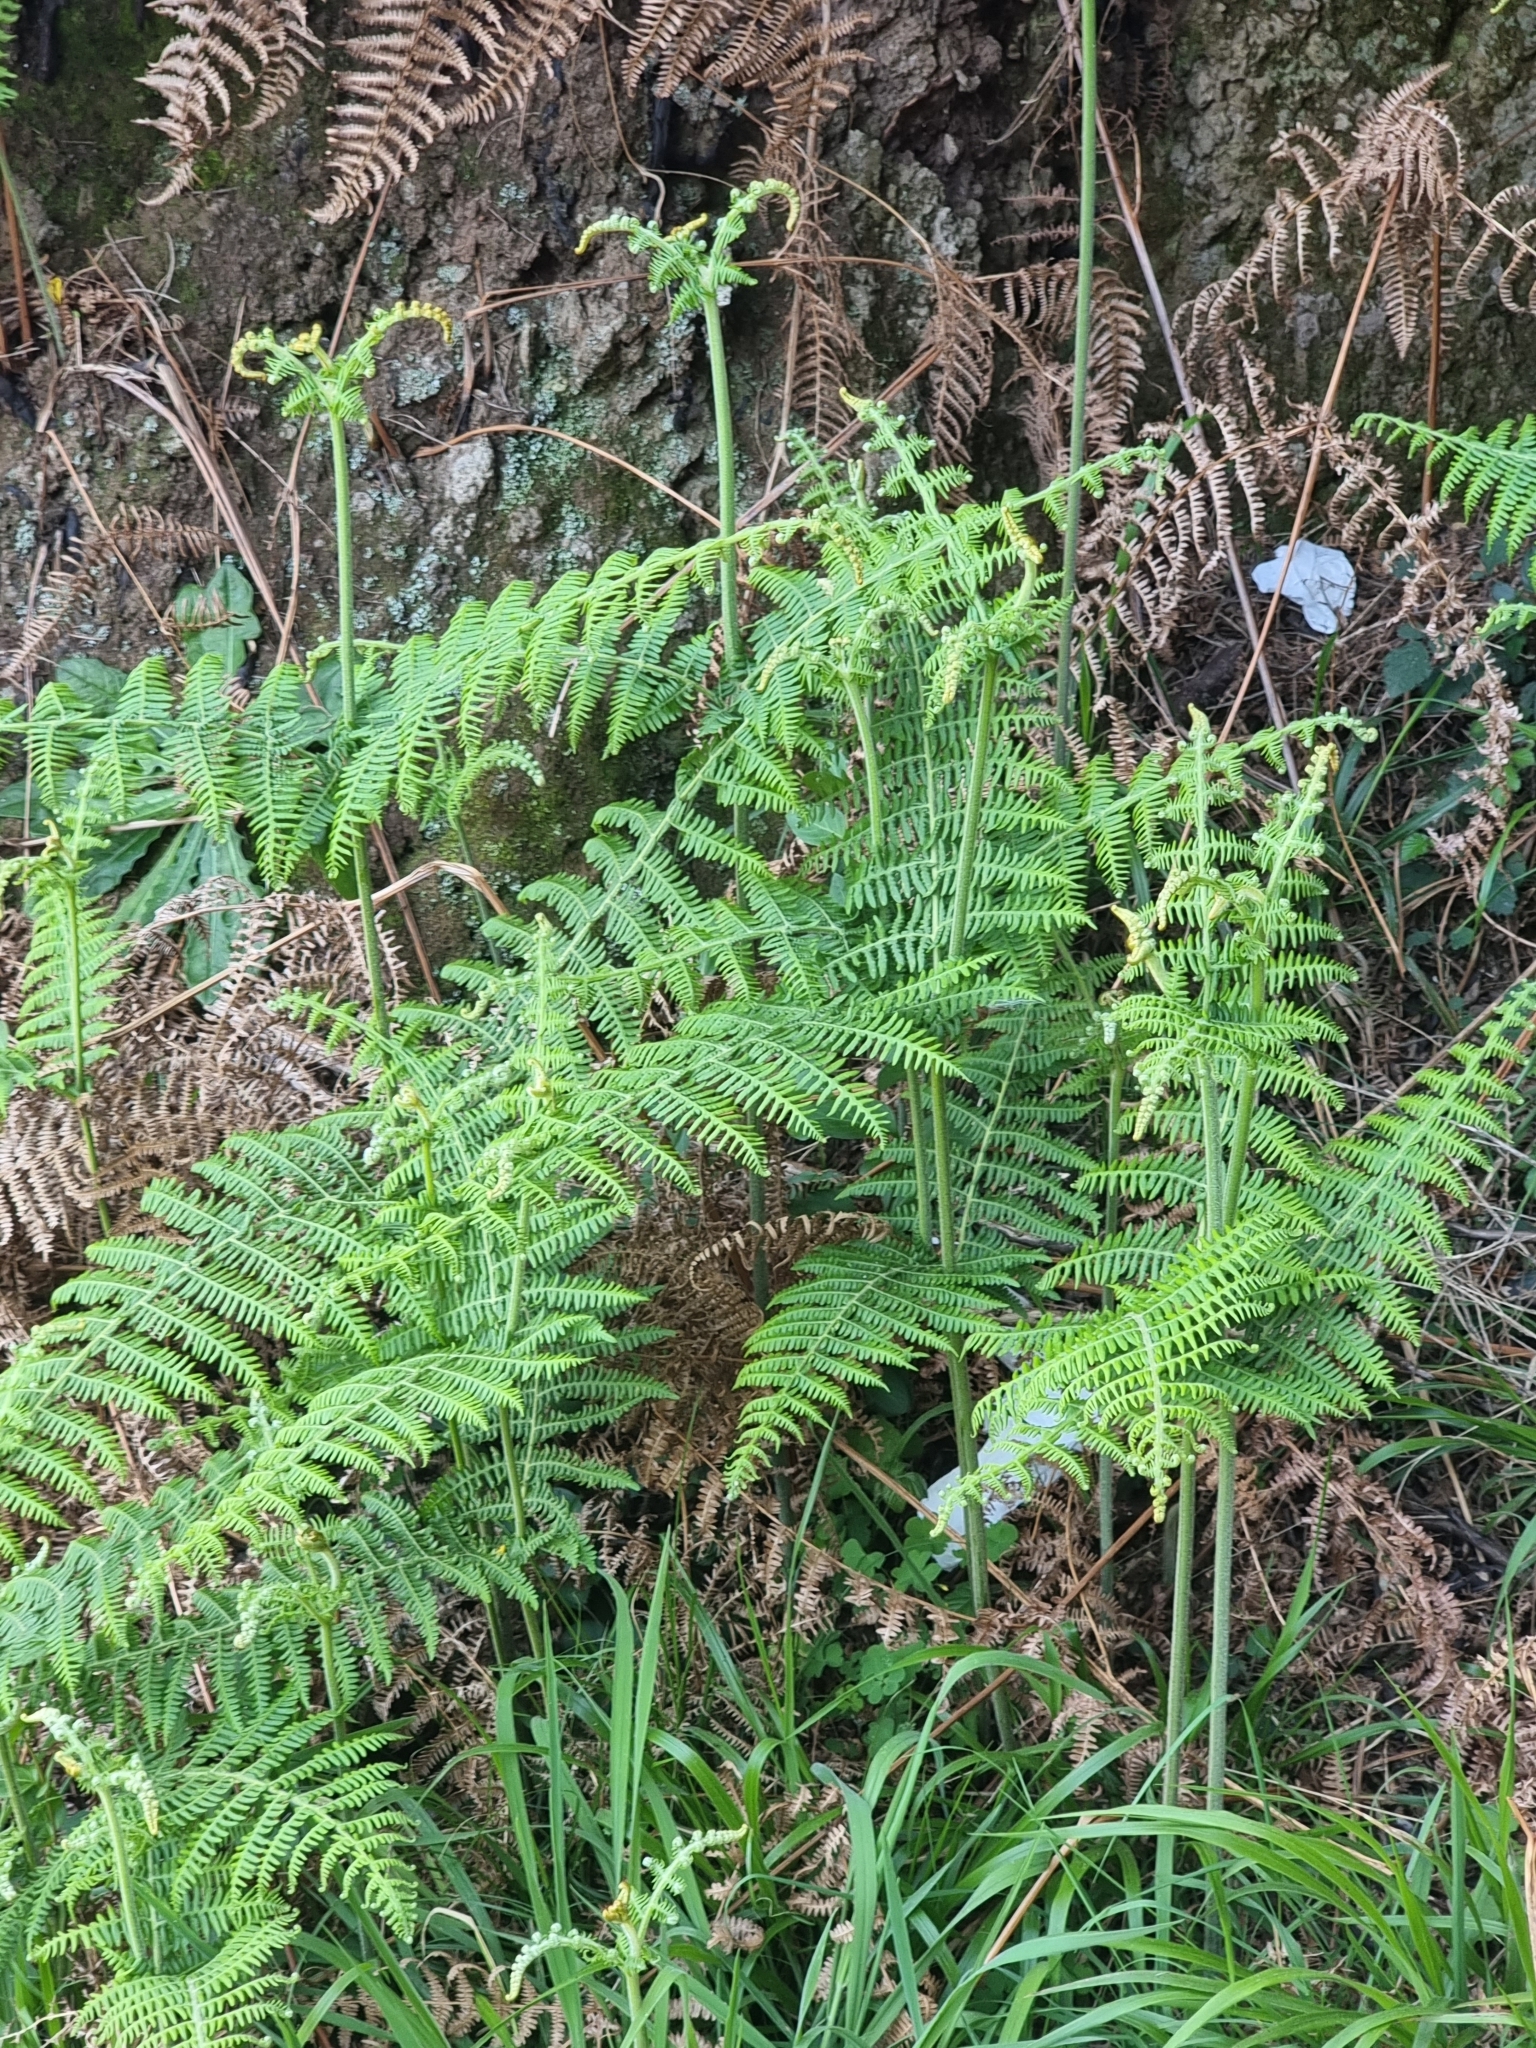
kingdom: Plantae
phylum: Tracheophyta
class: Polypodiopsida
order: Polypodiales
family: Dennstaedtiaceae
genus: Pteridium
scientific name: Pteridium aquilinum
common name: Bracken
